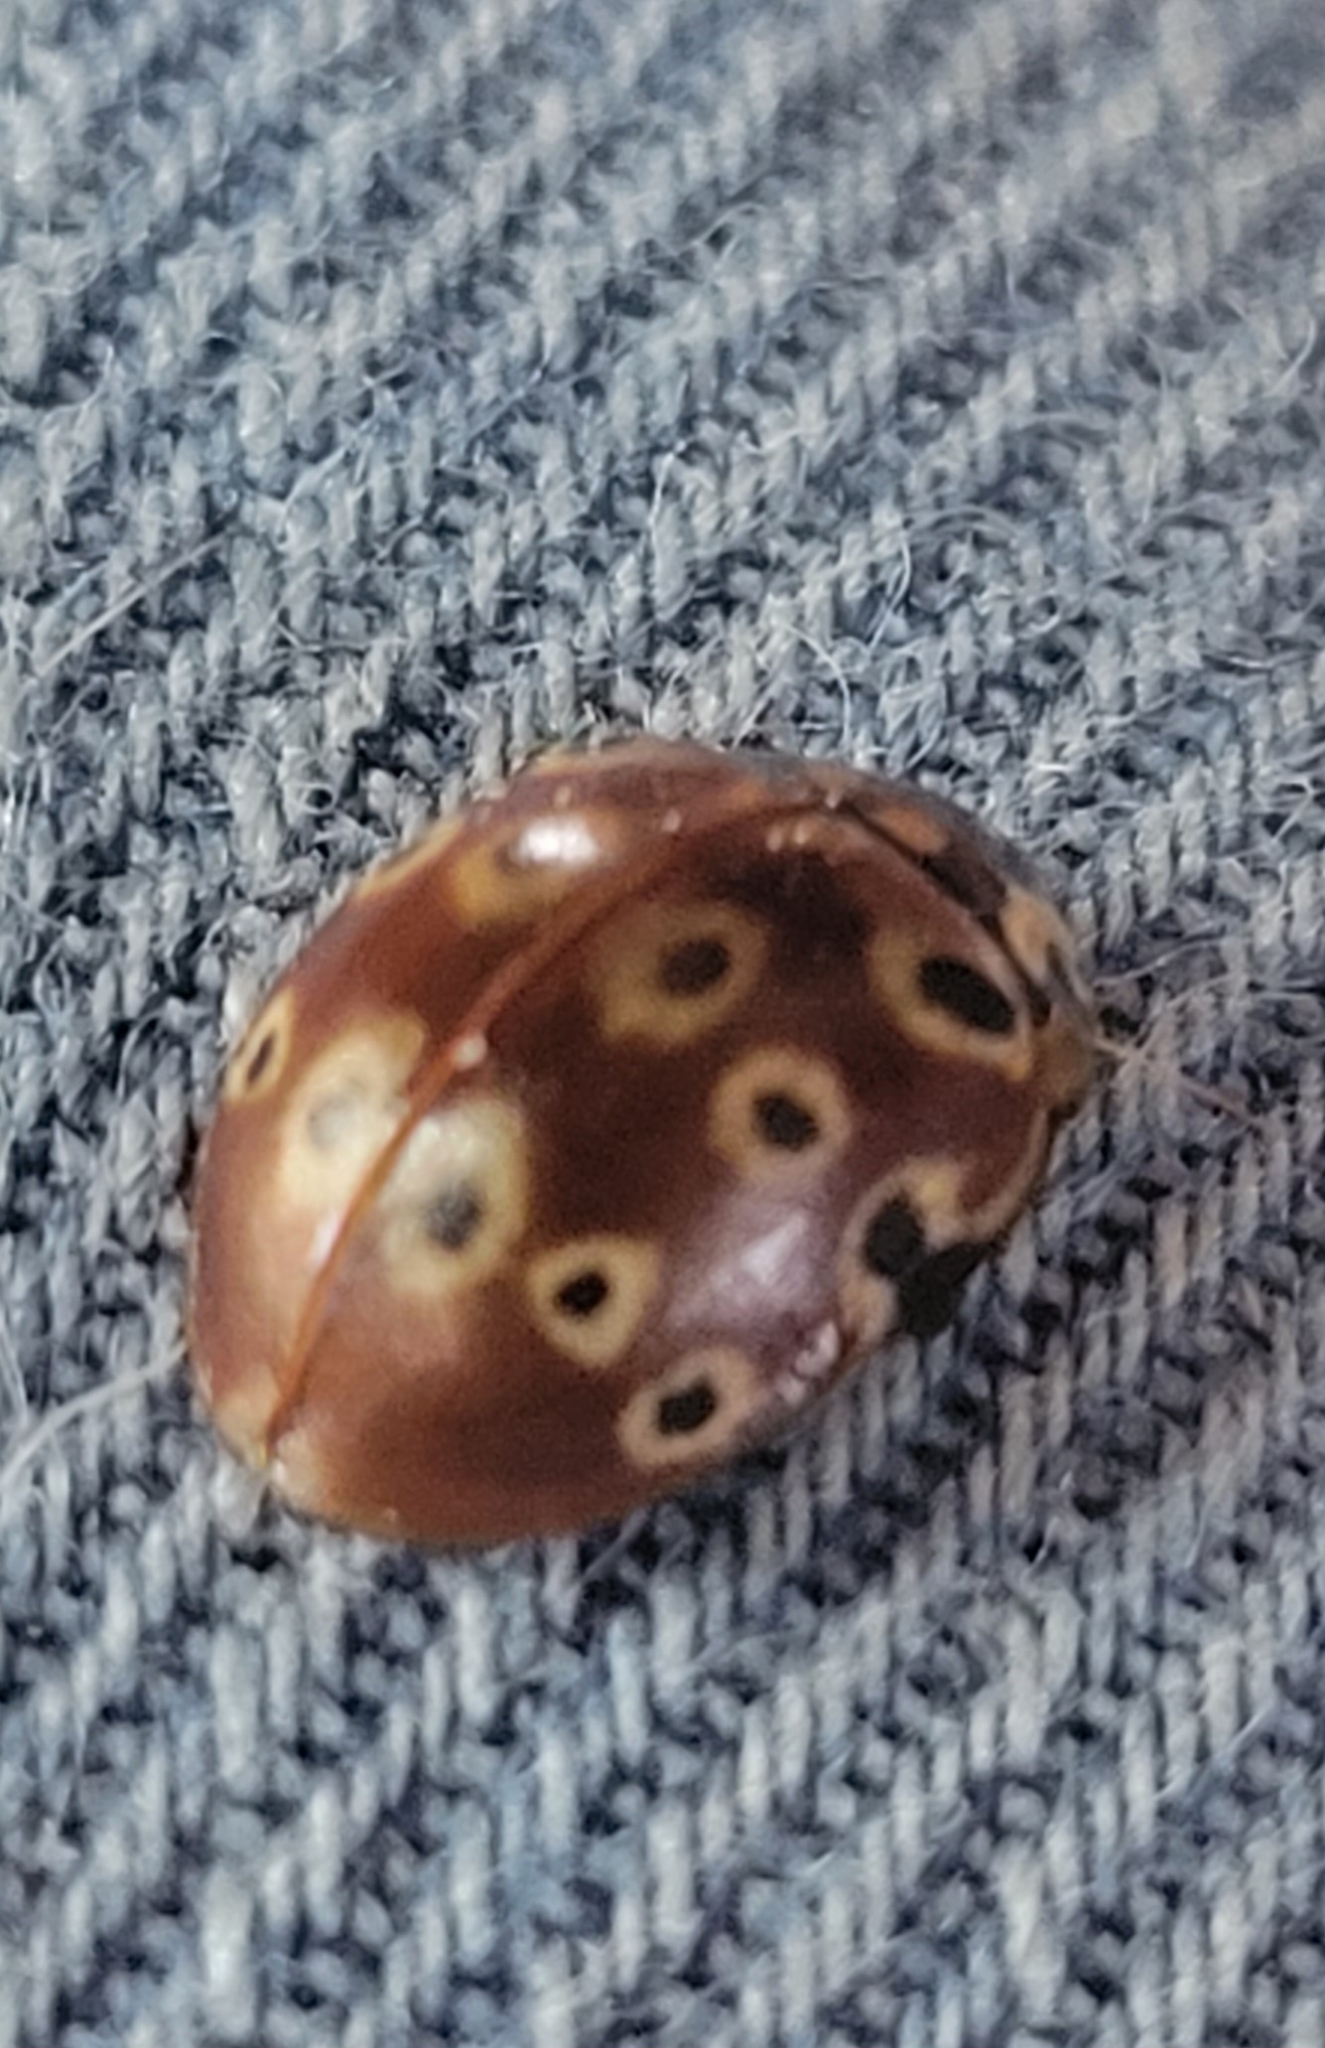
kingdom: Animalia
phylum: Arthropoda
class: Insecta
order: Coleoptera
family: Coccinellidae
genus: Anatis
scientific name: Anatis mali
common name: Eye-spotted lady beetle
